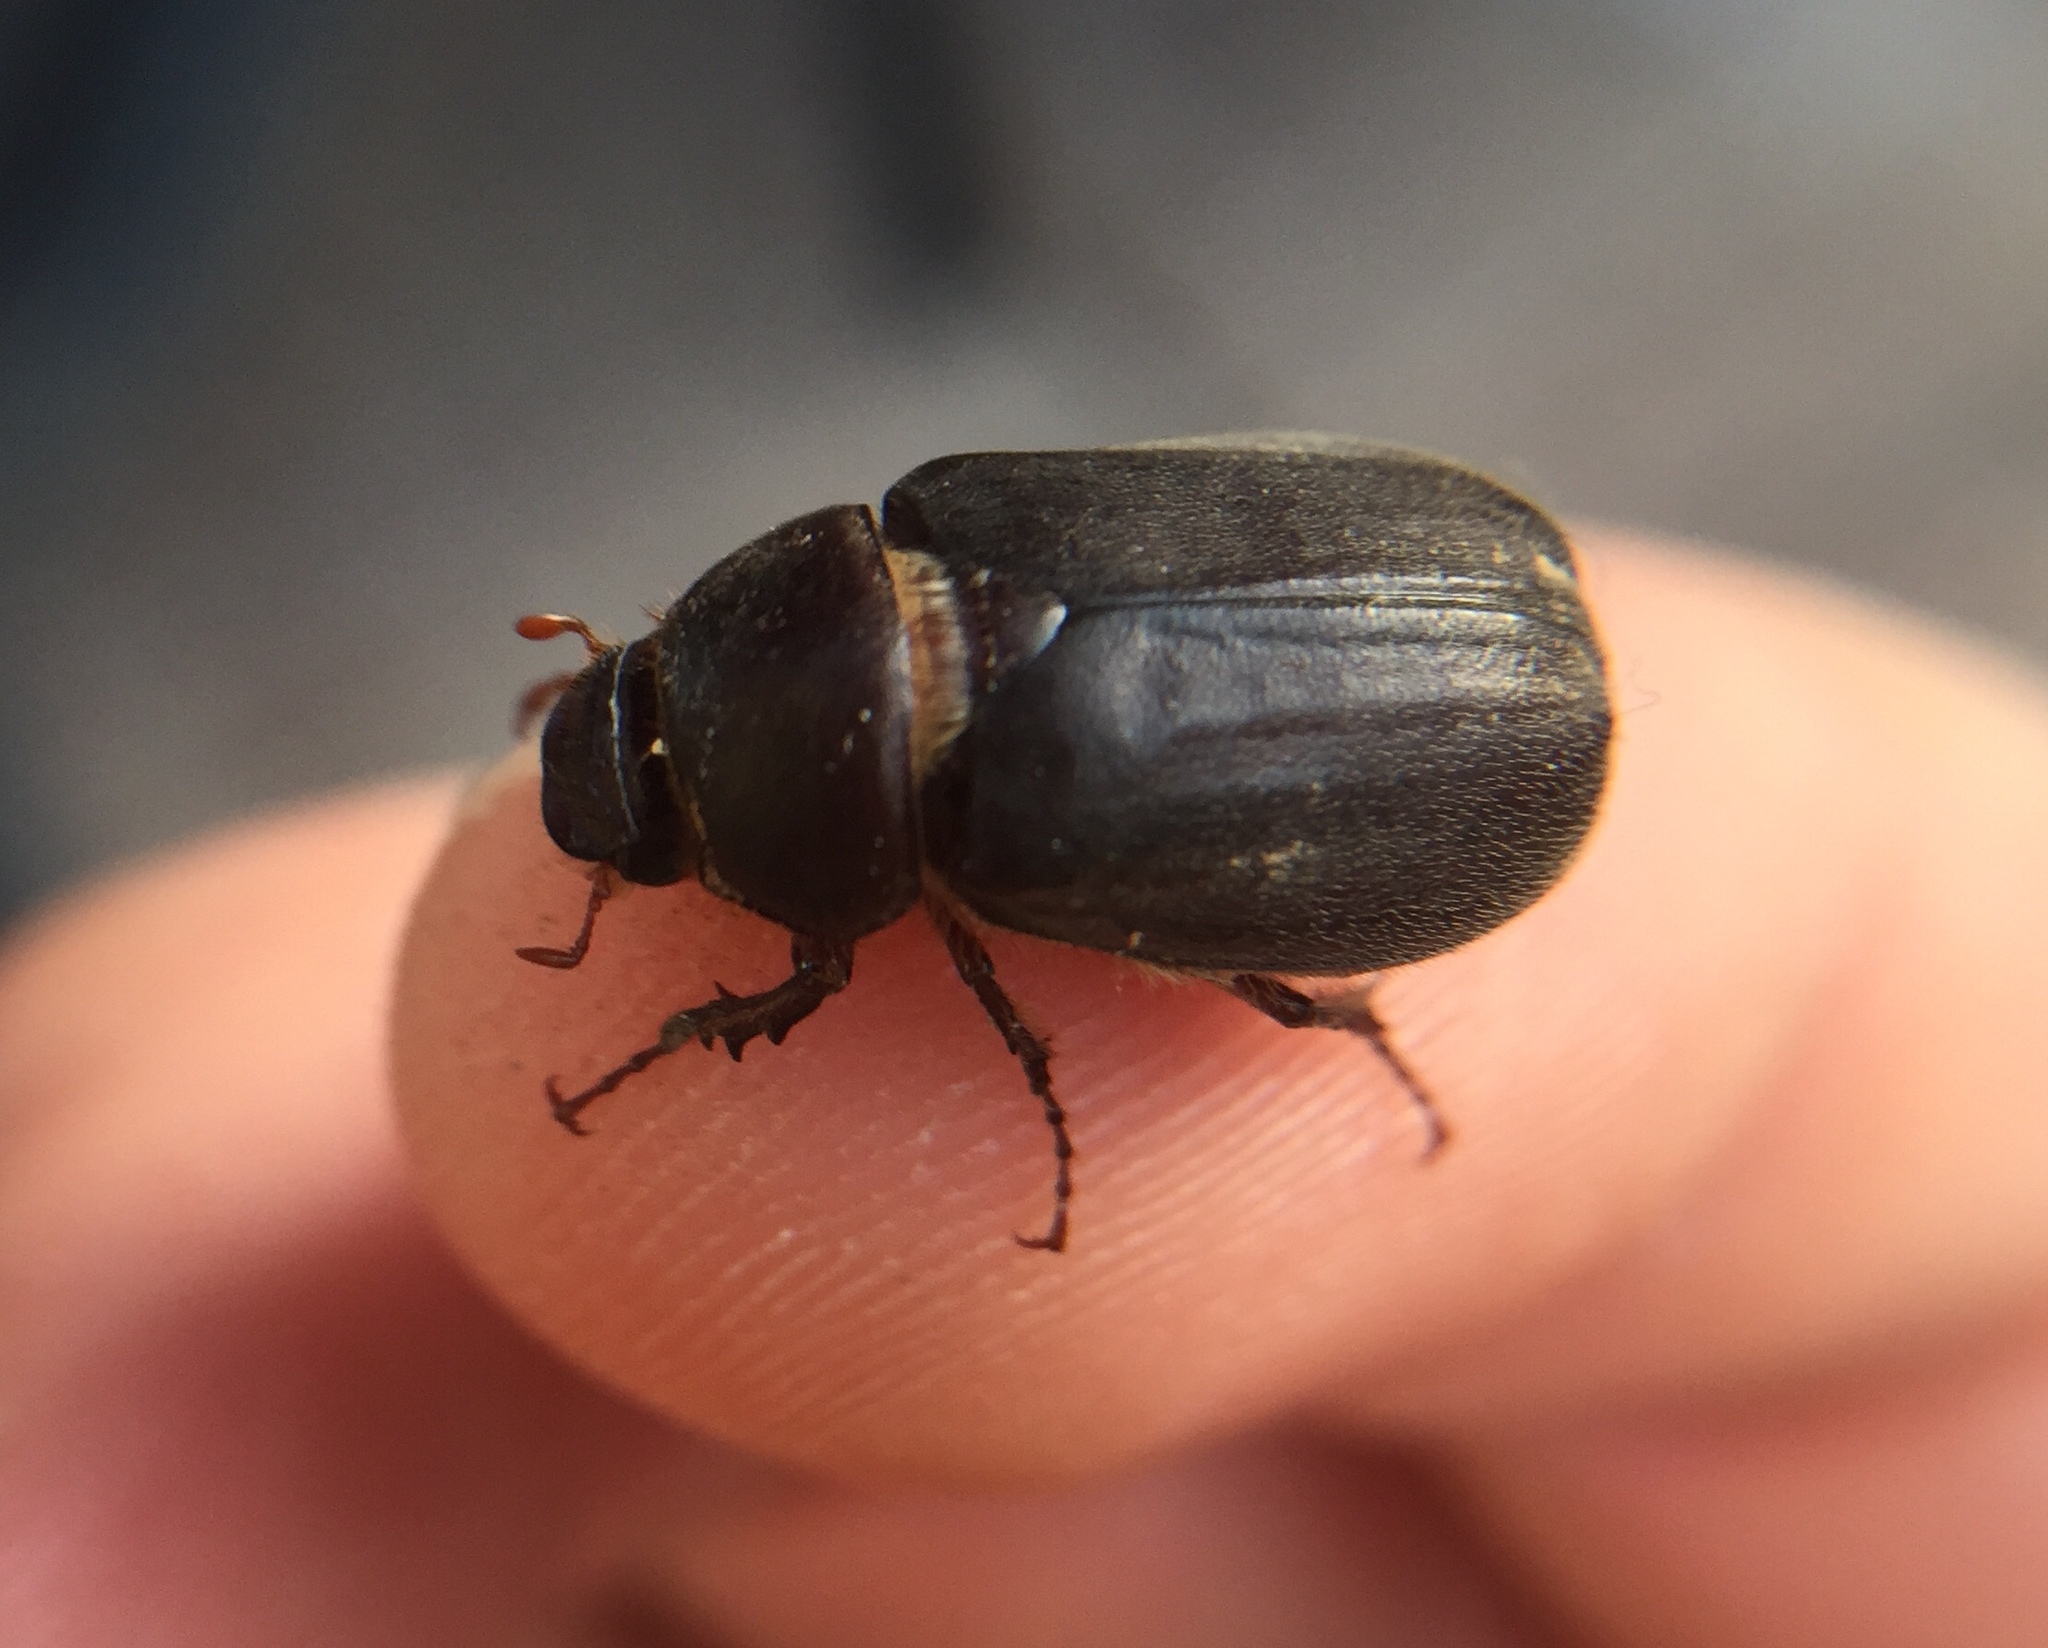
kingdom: Animalia
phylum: Arthropoda
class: Insecta
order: Coleoptera
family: Scarabaeidae
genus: Aplidia
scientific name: Aplidia transversa
